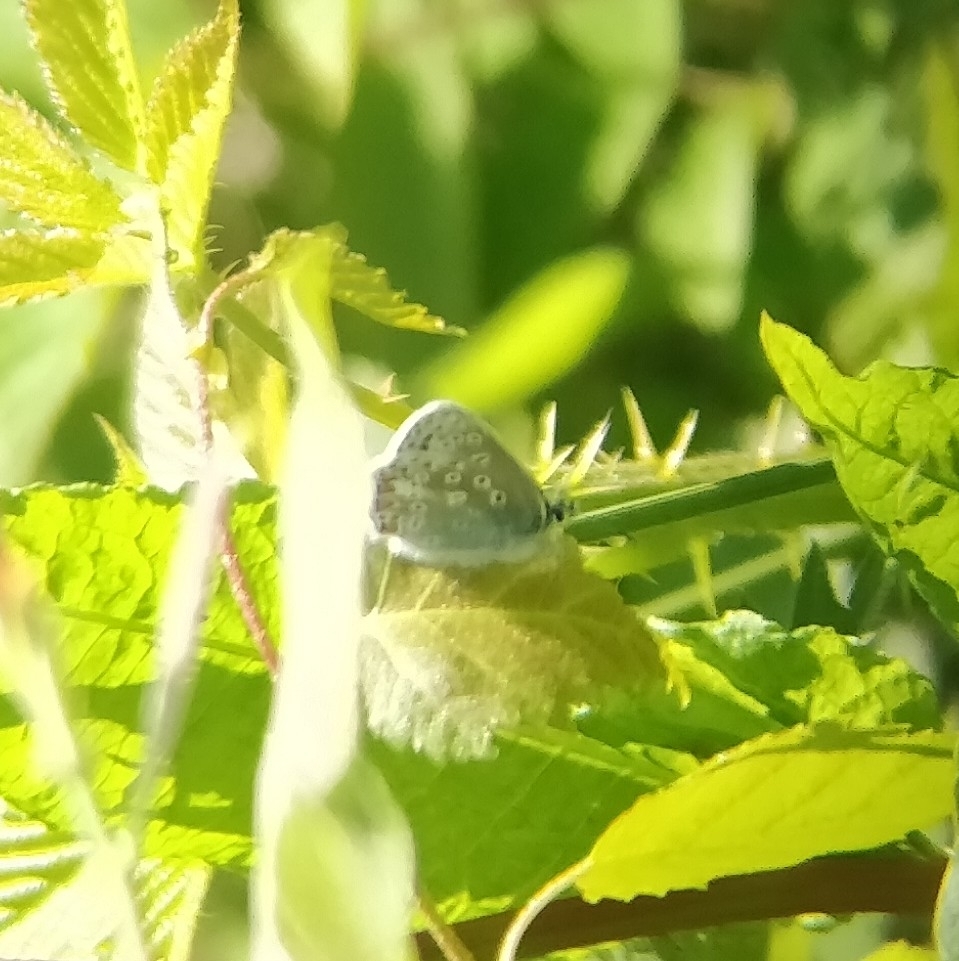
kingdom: Animalia
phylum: Arthropoda
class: Insecta
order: Lepidoptera
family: Lycaenidae
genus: Polyommatus
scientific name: Polyommatus icarus
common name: Common blue
